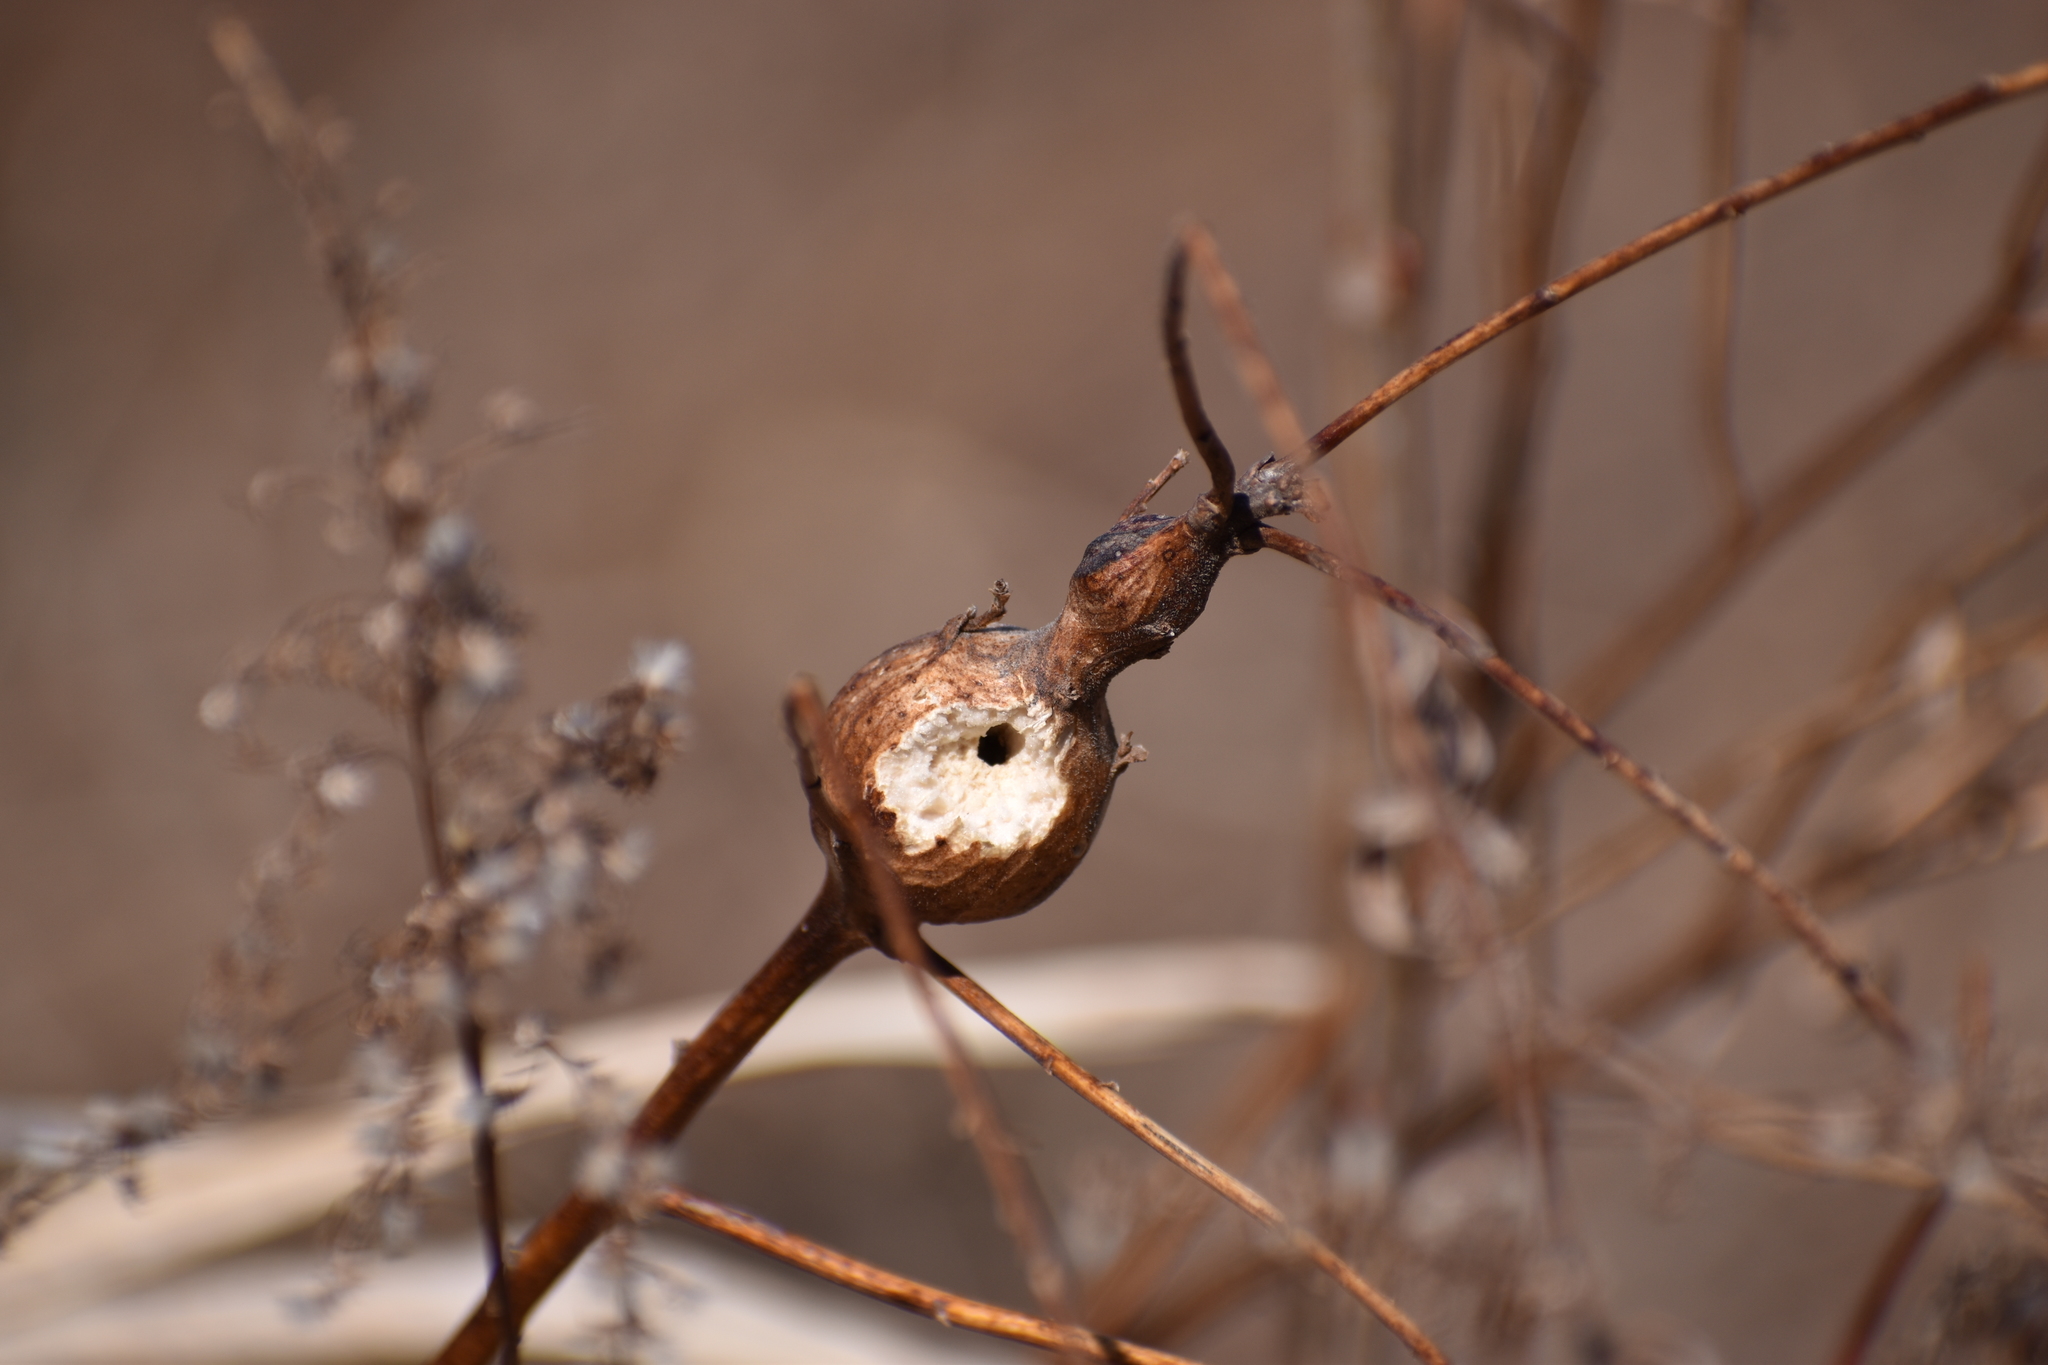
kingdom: Animalia
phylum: Arthropoda
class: Insecta
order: Diptera
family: Tephritidae
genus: Eurosta
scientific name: Eurosta solidaginis
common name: Goldenrod gall fly
